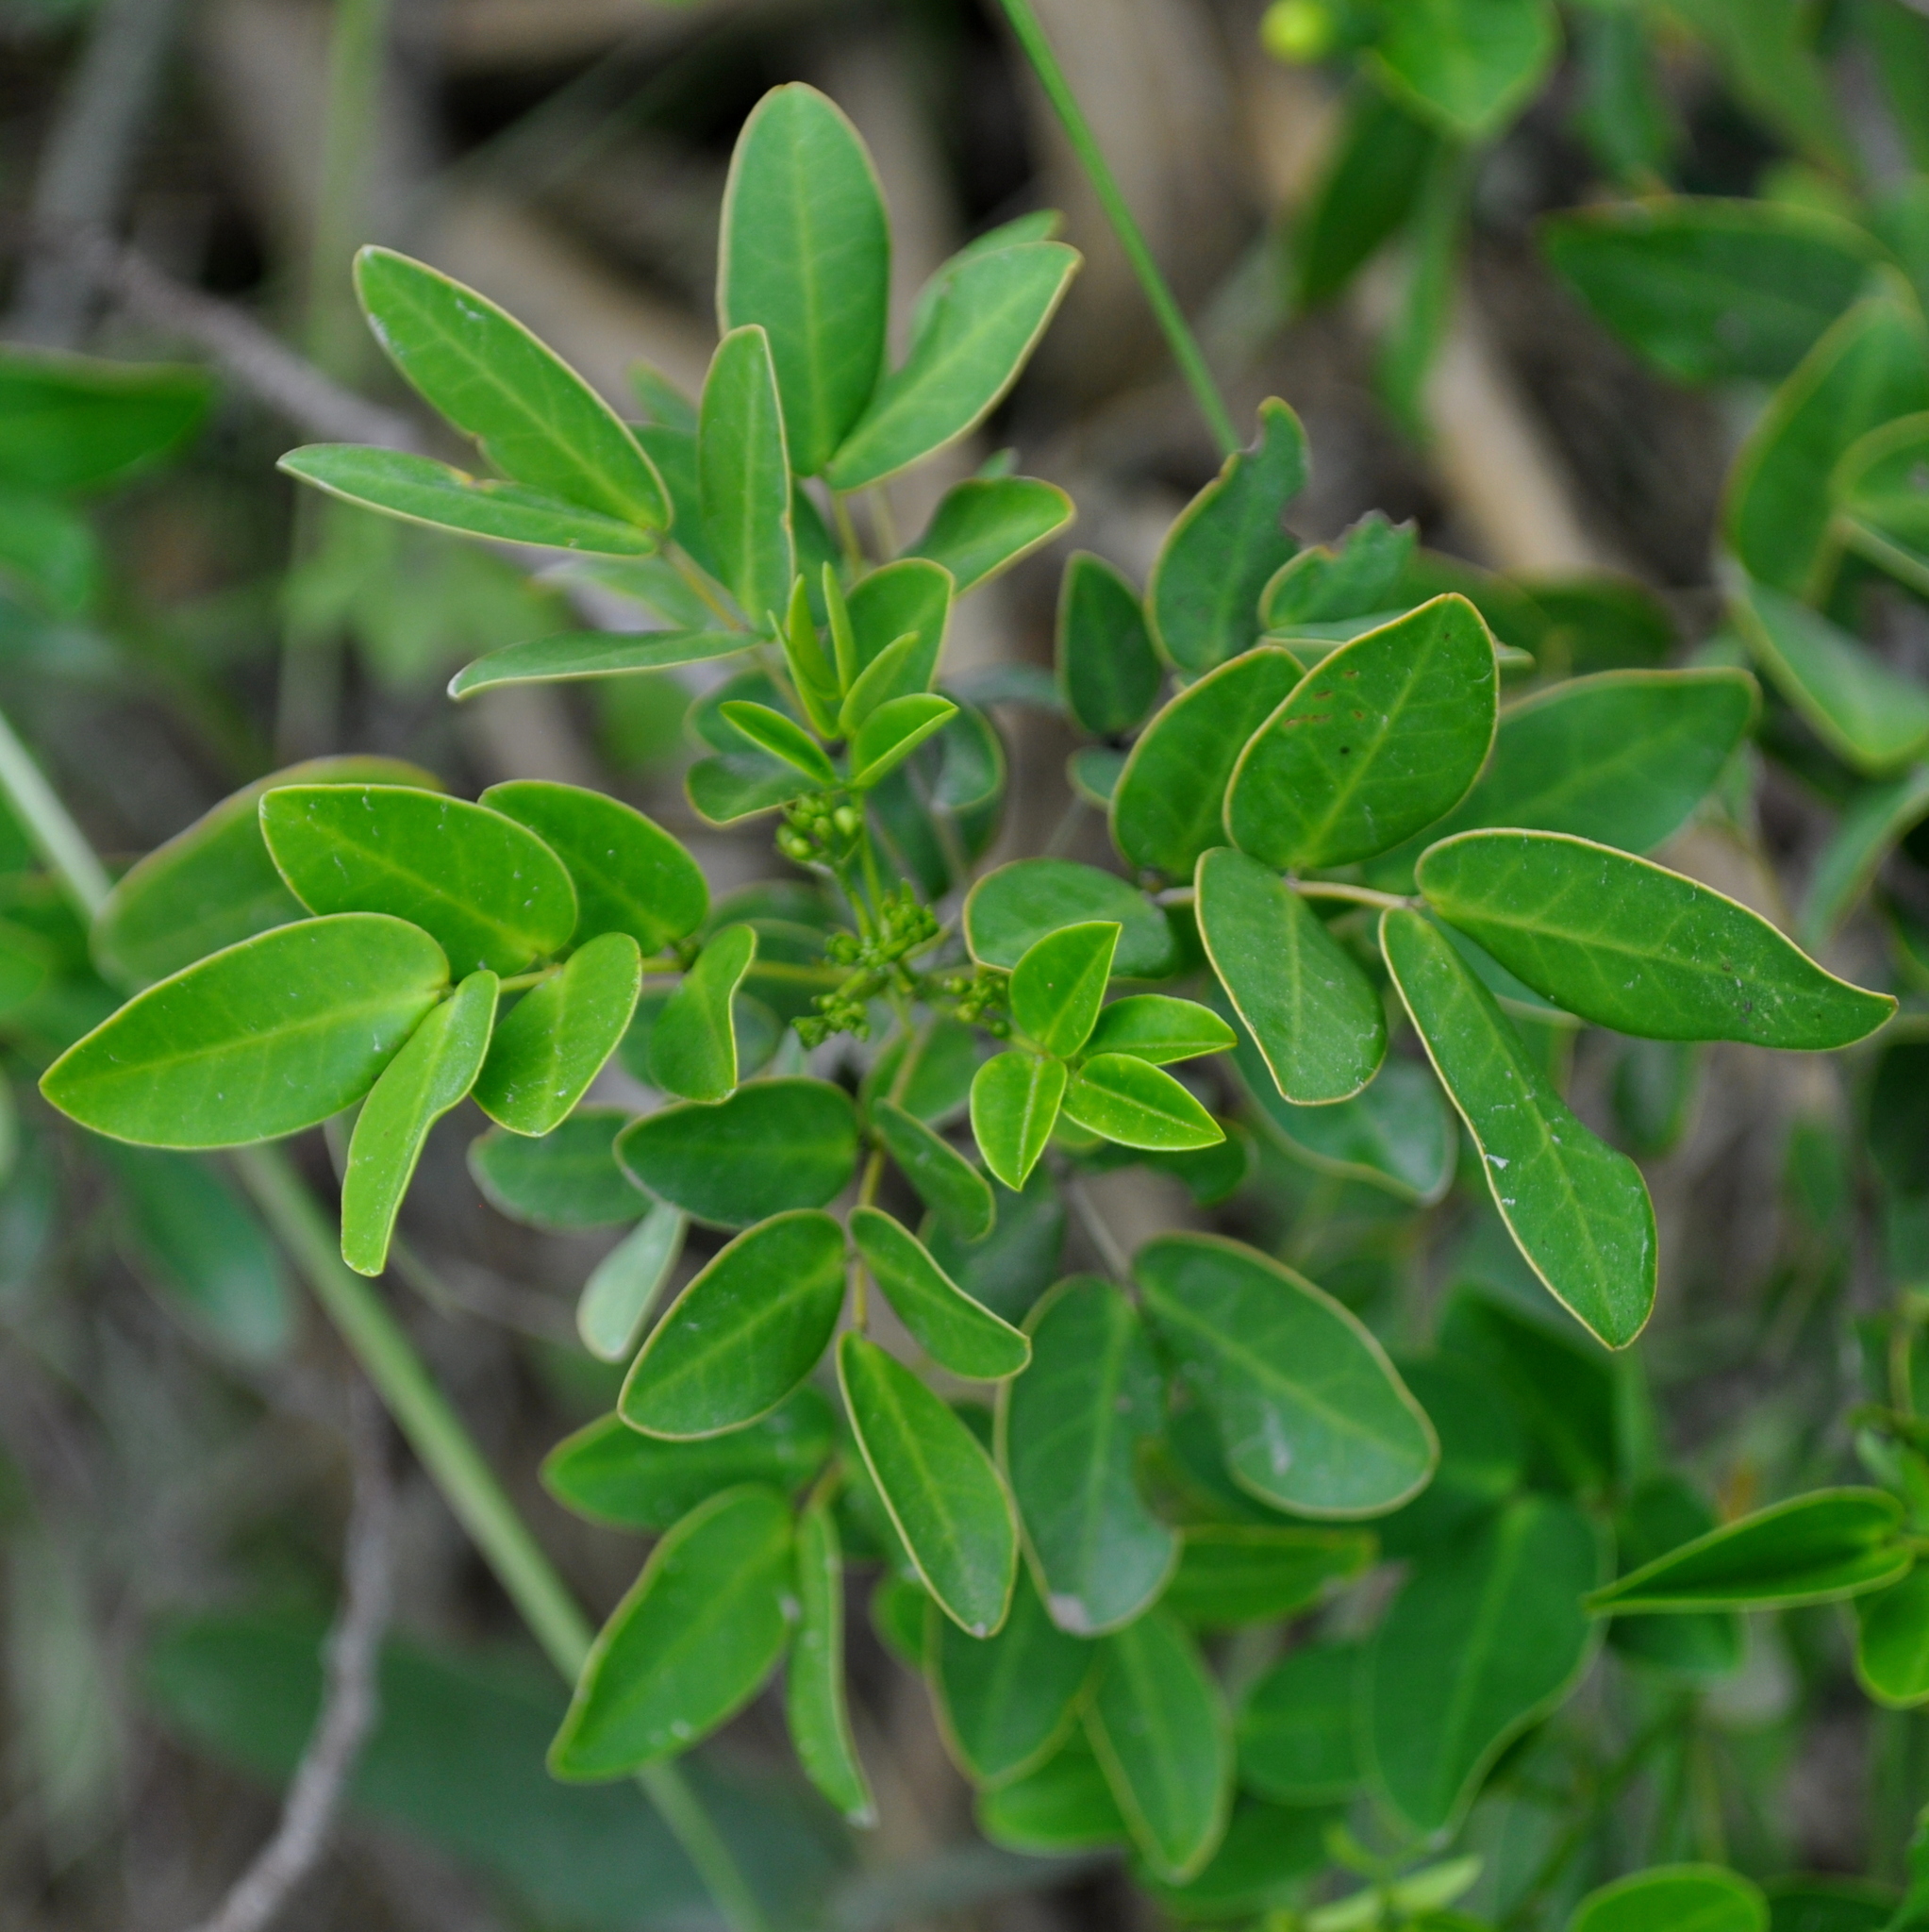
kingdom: Plantae
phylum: Tracheophyta
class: Magnoliopsida
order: Fabales
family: Fabaceae
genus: Senna
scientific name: Senna corymbosa
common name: Argentine senna
